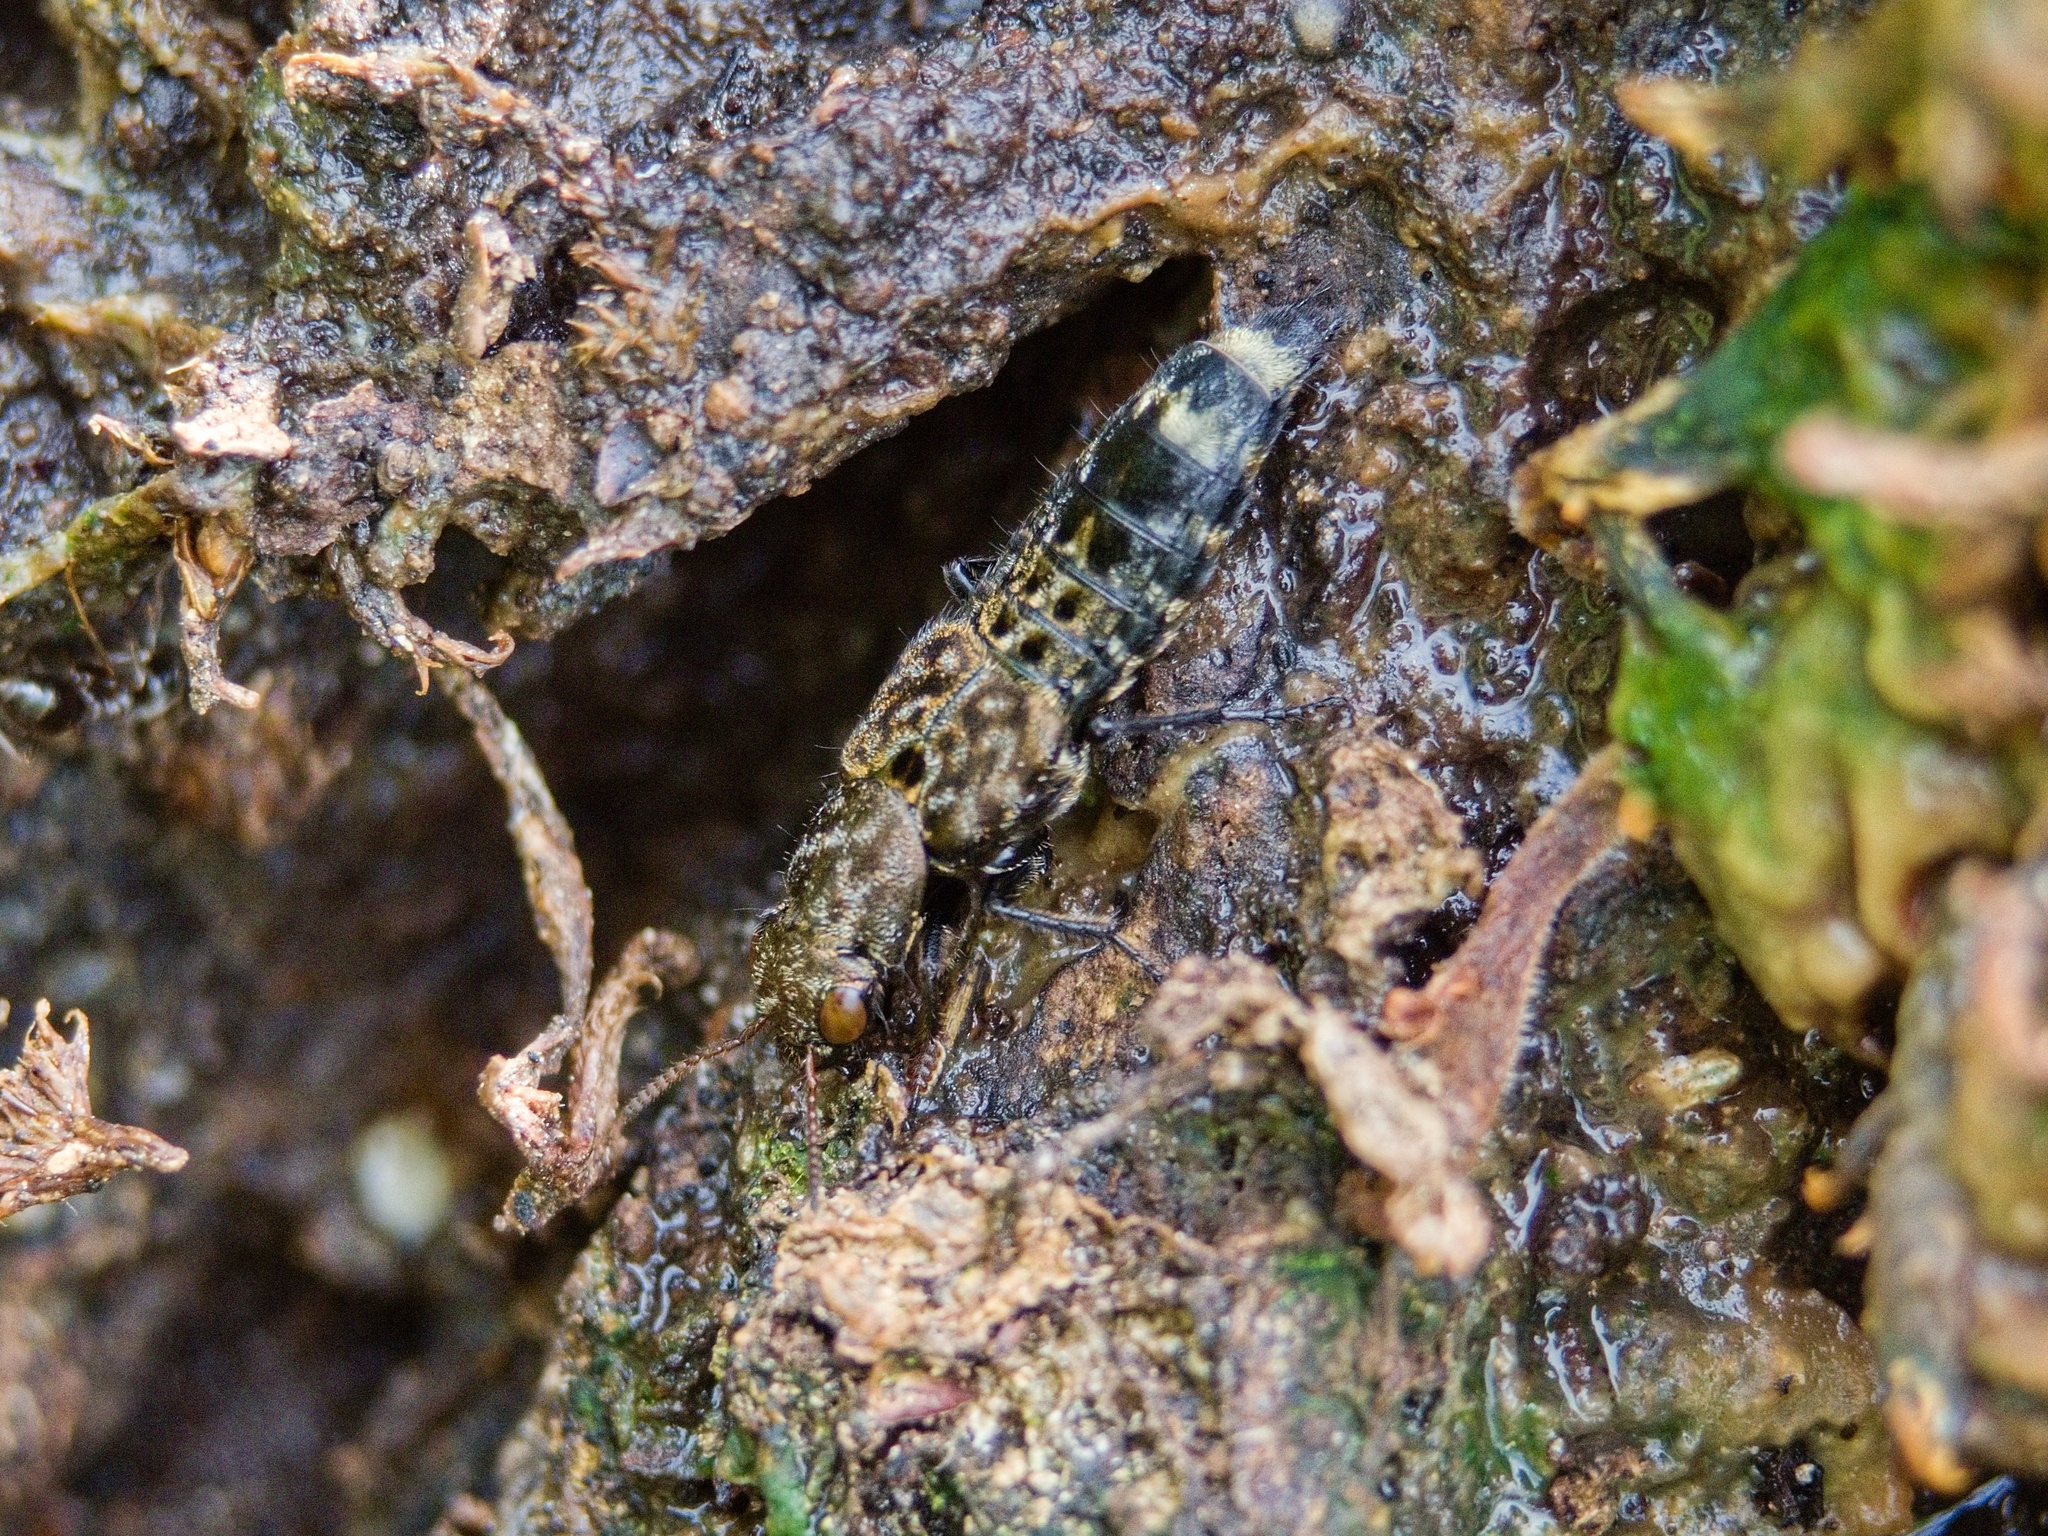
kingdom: Animalia
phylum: Arthropoda
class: Insecta
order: Coleoptera
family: Staphylinidae
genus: Ontholestes
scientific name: Ontholestes murinus
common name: Staph beetle
